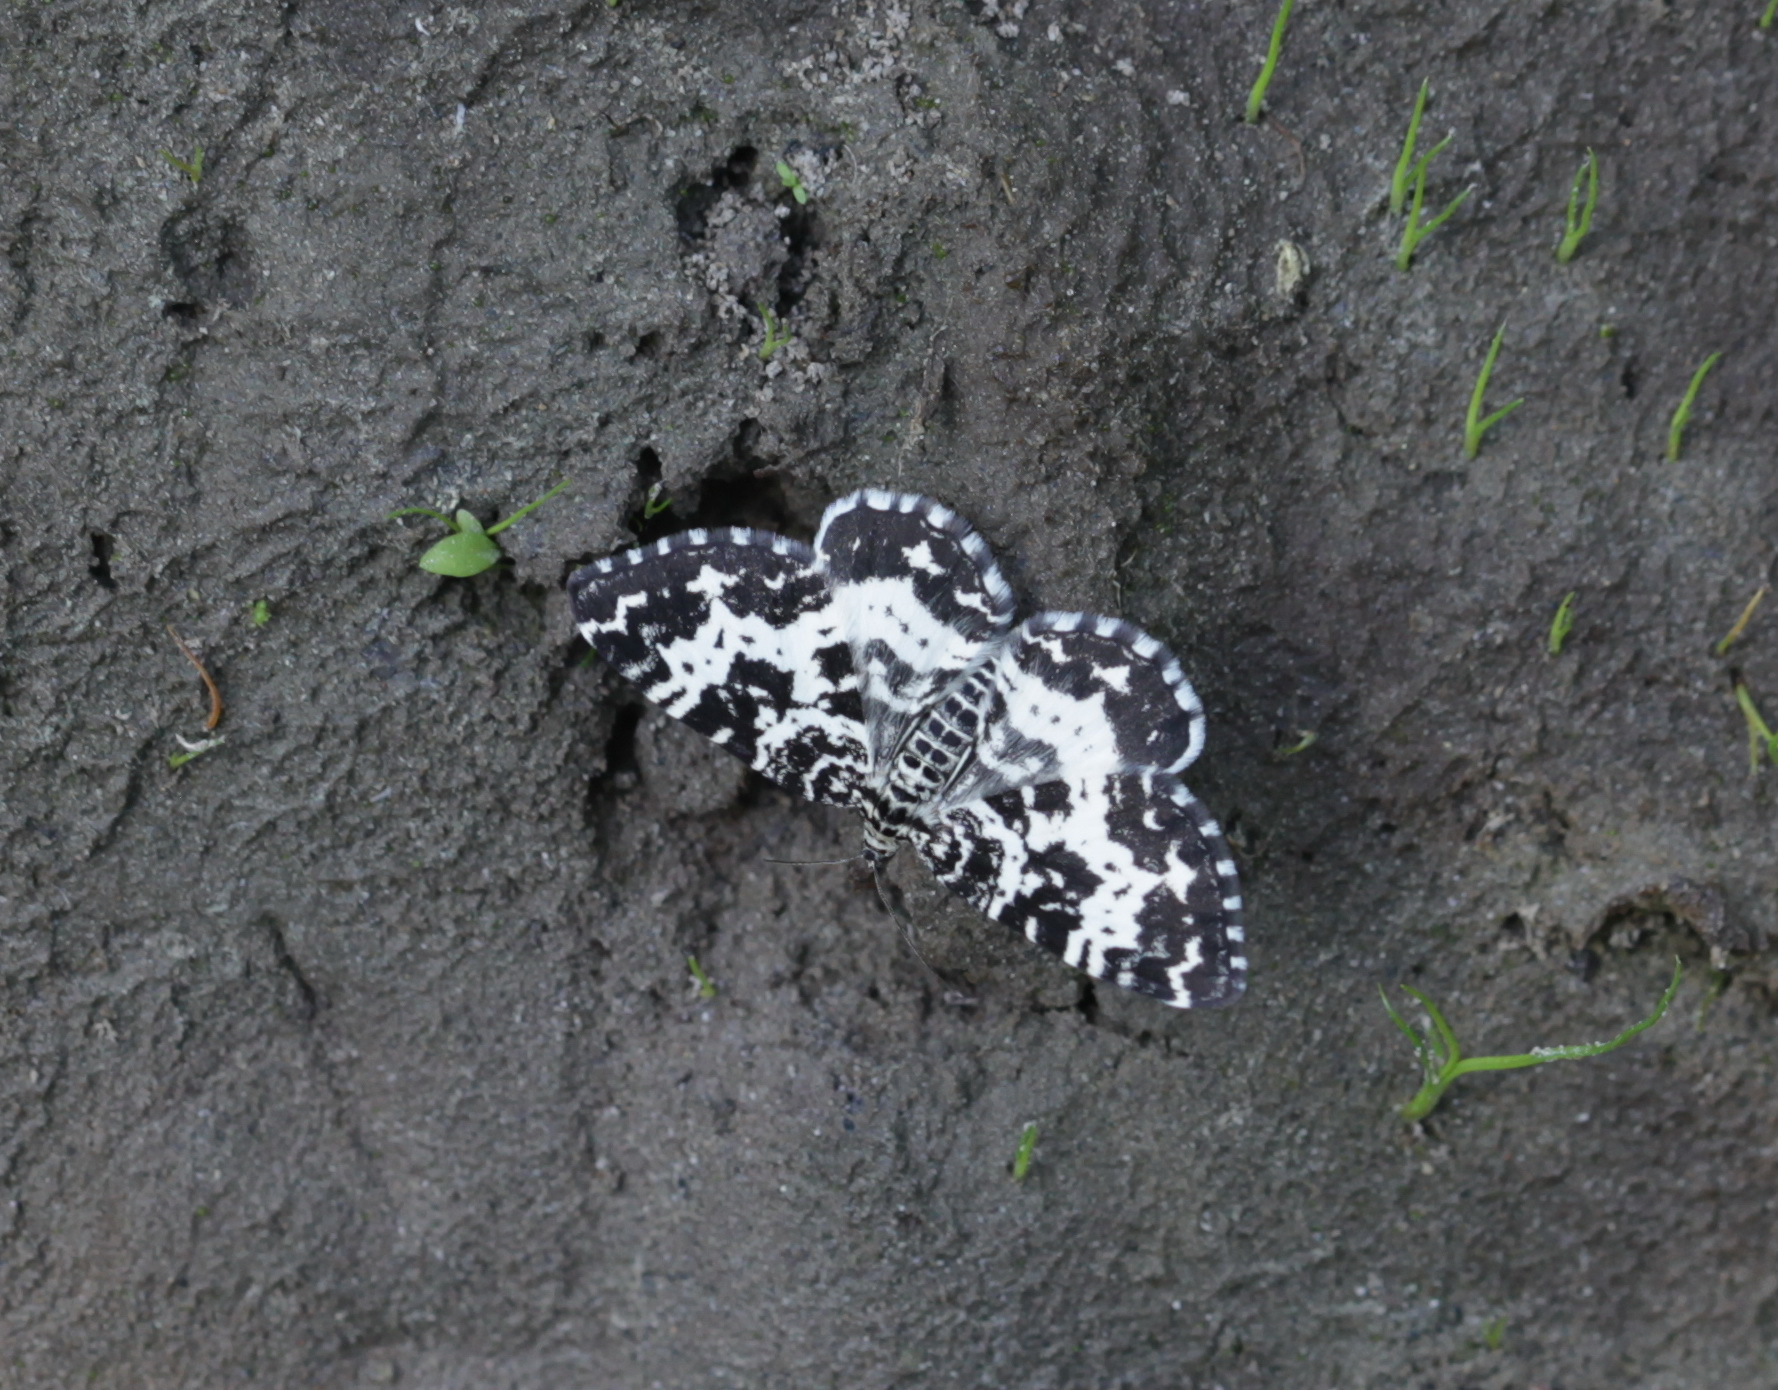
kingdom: Animalia
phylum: Arthropoda
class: Insecta
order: Lepidoptera
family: Geometridae
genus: Rheumaptera
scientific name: Rheumaptera hastata
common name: Argent & sable
